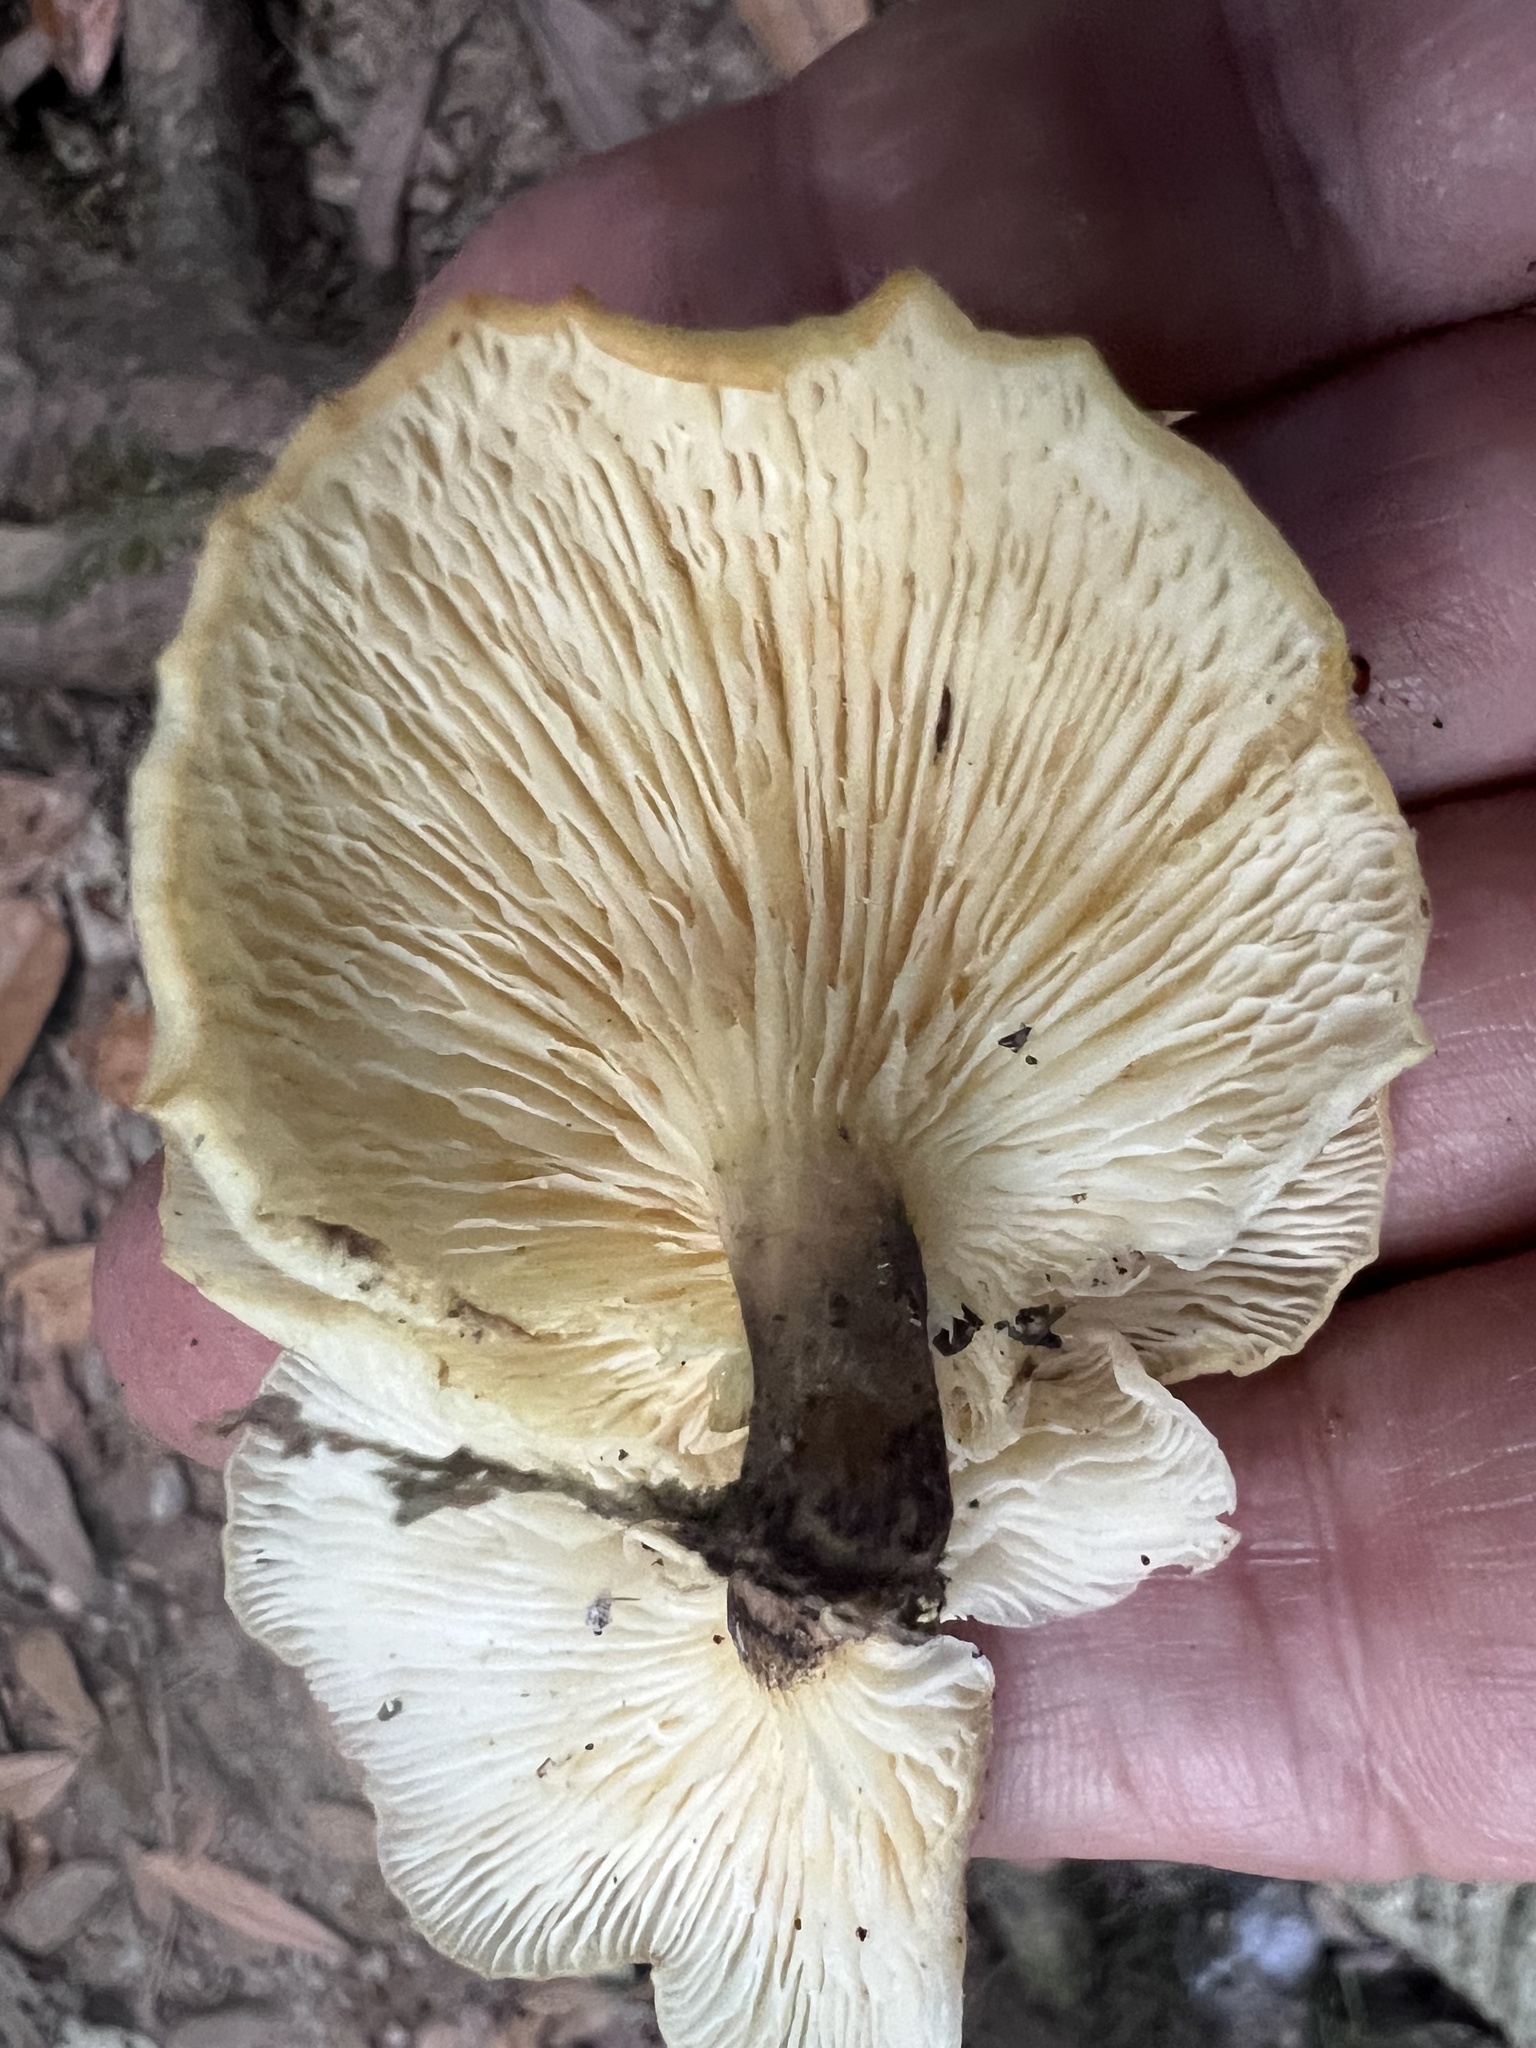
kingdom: Fungi
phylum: Basidiomycota
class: Agaricomycetes
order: Agaricales
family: Omphalotaceae
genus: Omphalotus
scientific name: Omphalotus nidiformis
